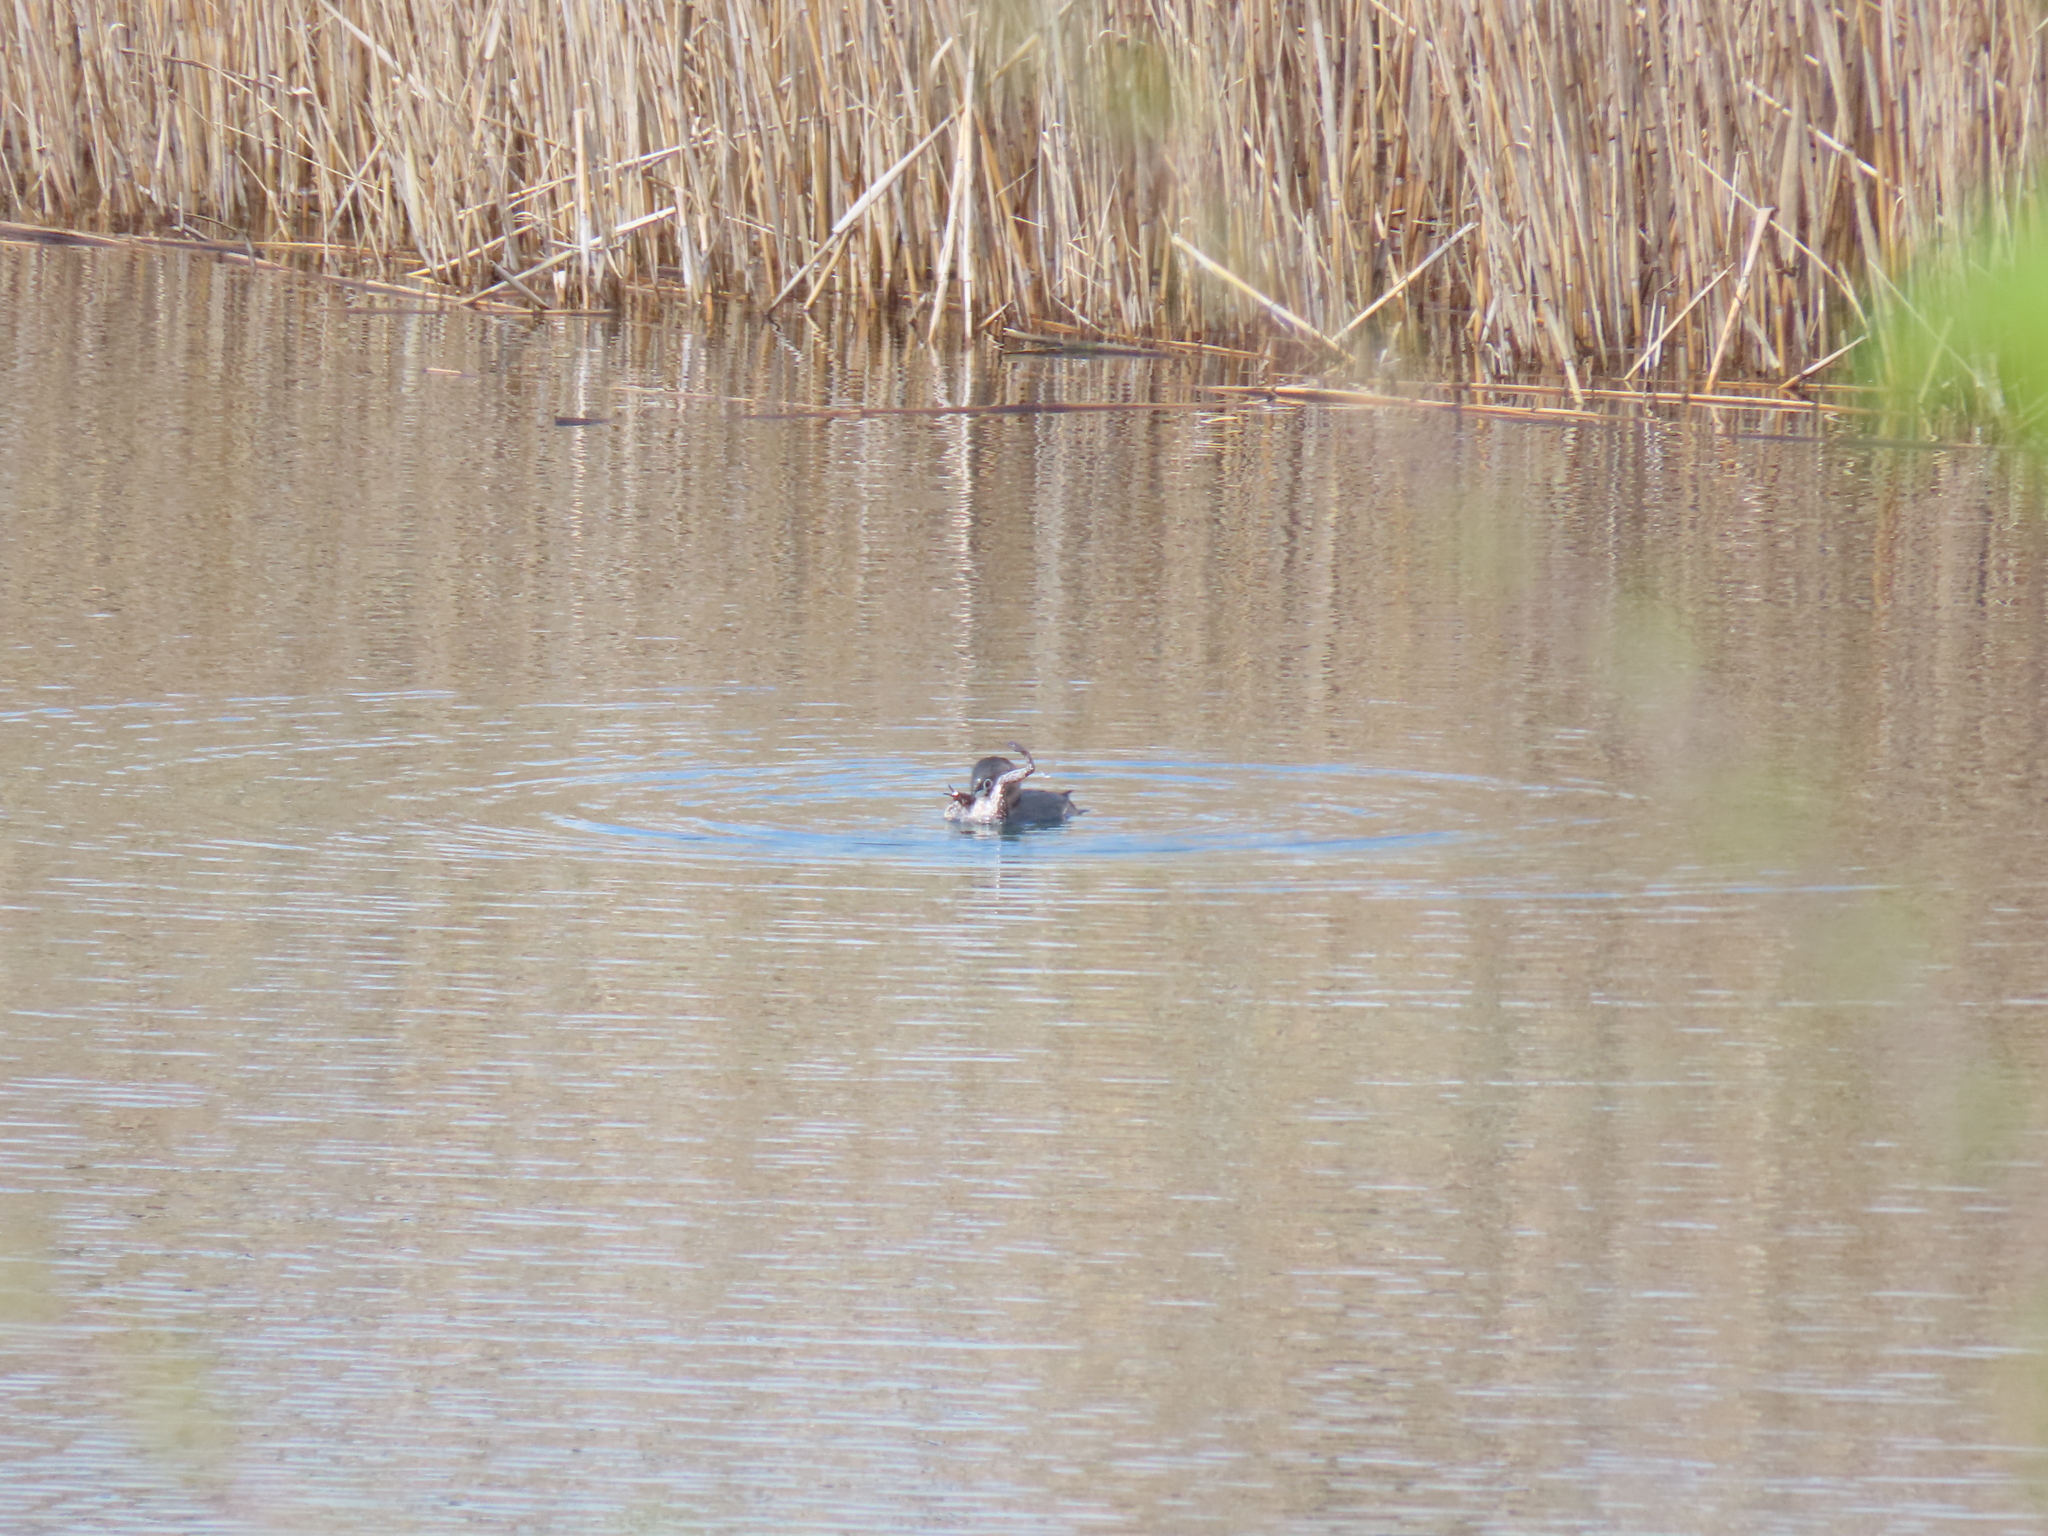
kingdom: Animalia
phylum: Chordata
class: Aves
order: Podicipediformes
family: Podicipedidae
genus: Podilymbus
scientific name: Podilymbus podiceps
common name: Pied-billed grebe
